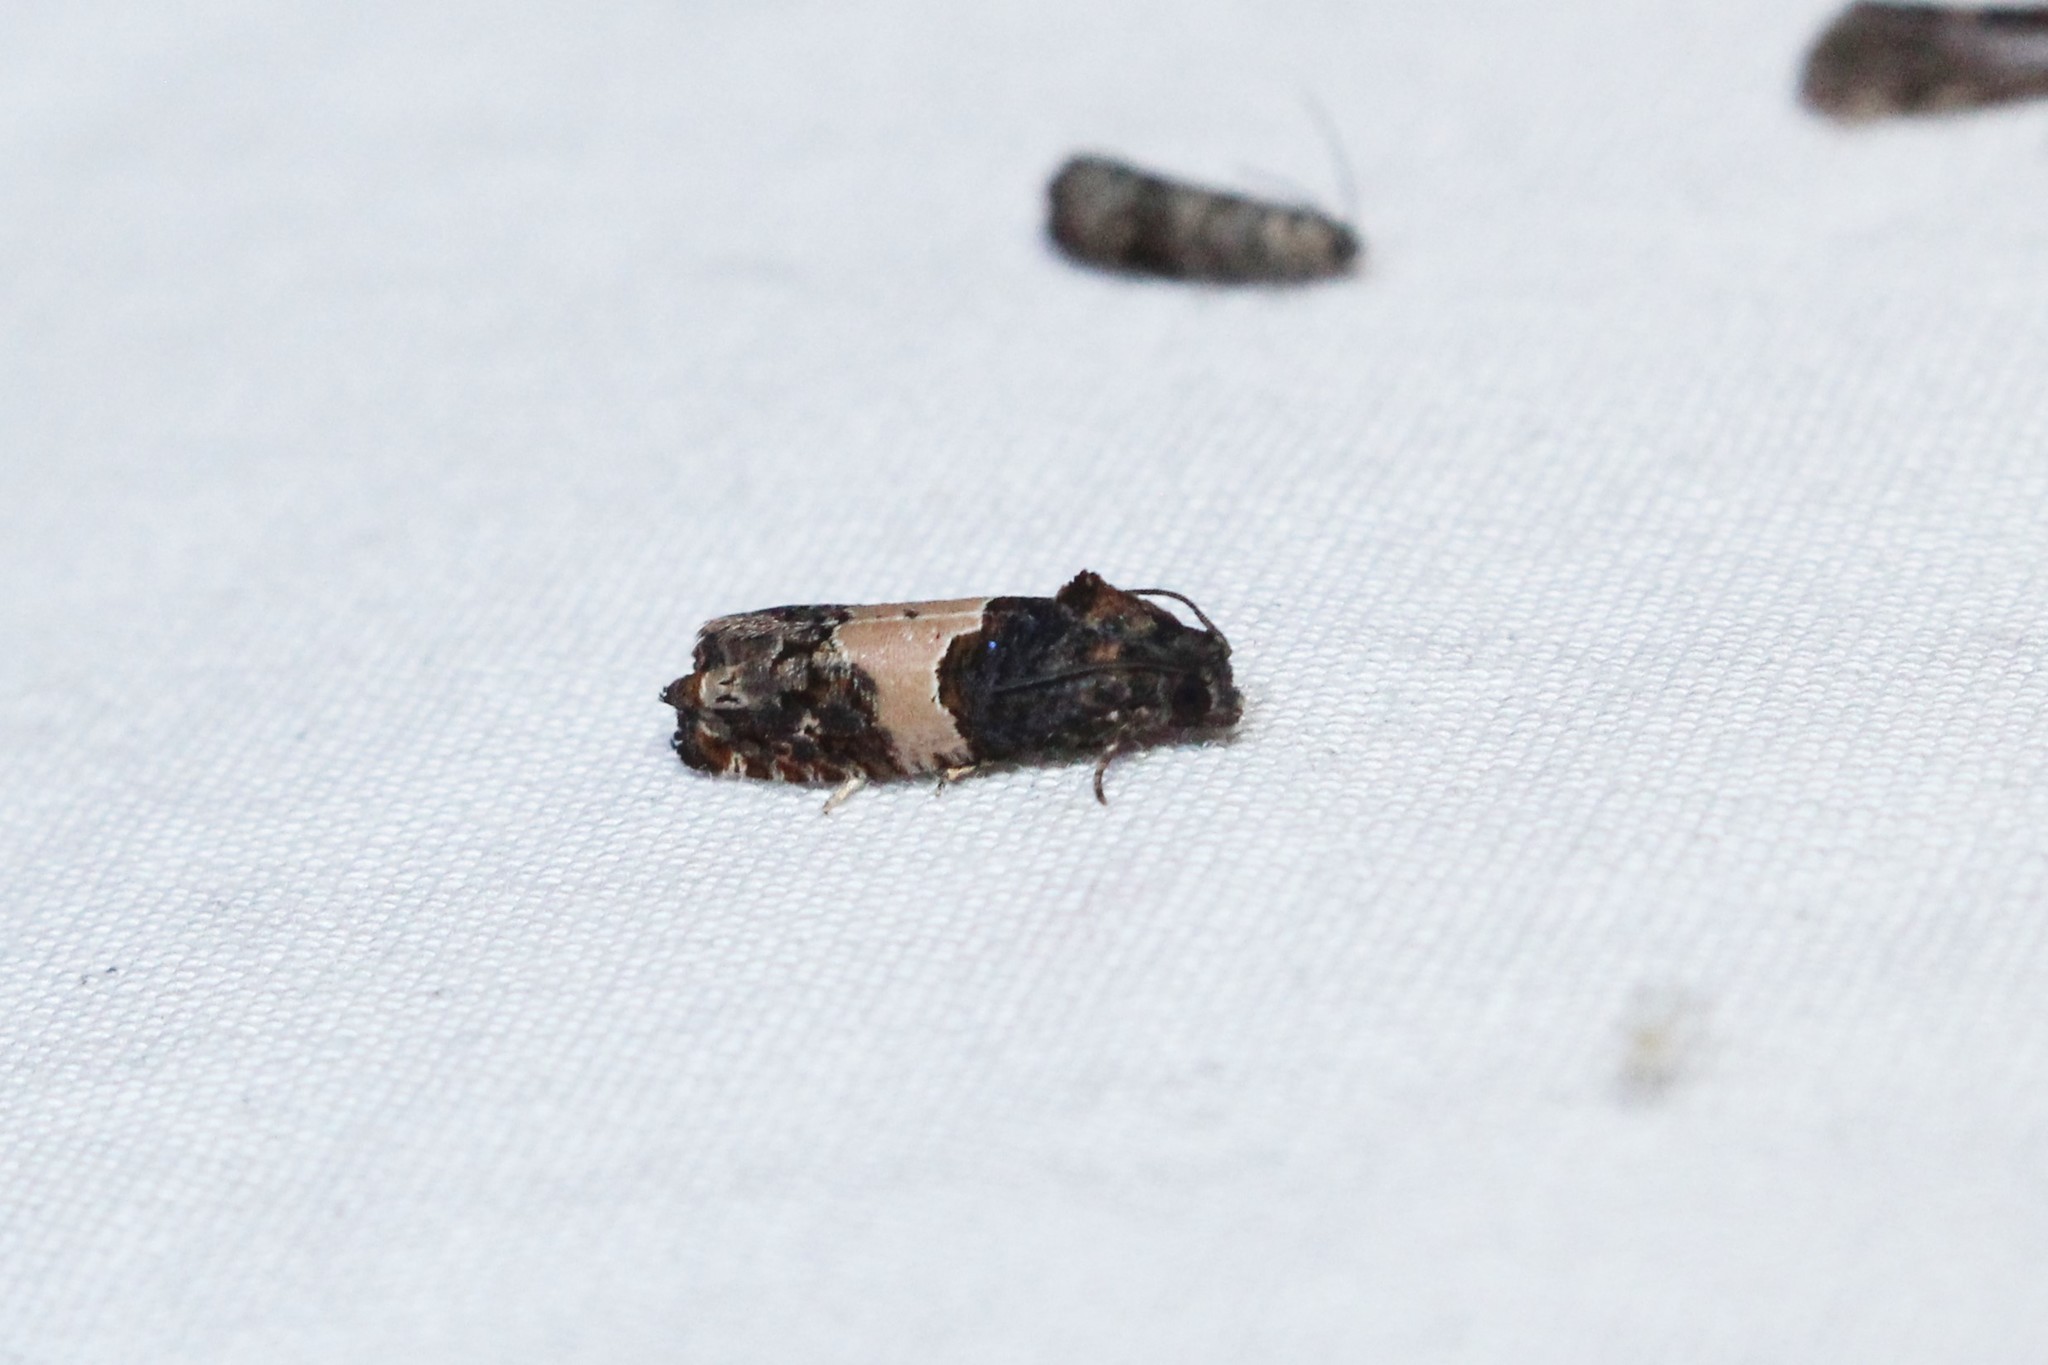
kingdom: Animalia
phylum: Arthropoda
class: Insecta
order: Lepidoptera
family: Tortricidae
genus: Epiblema
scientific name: Epiblema glenni
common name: Glenn's epiblema
